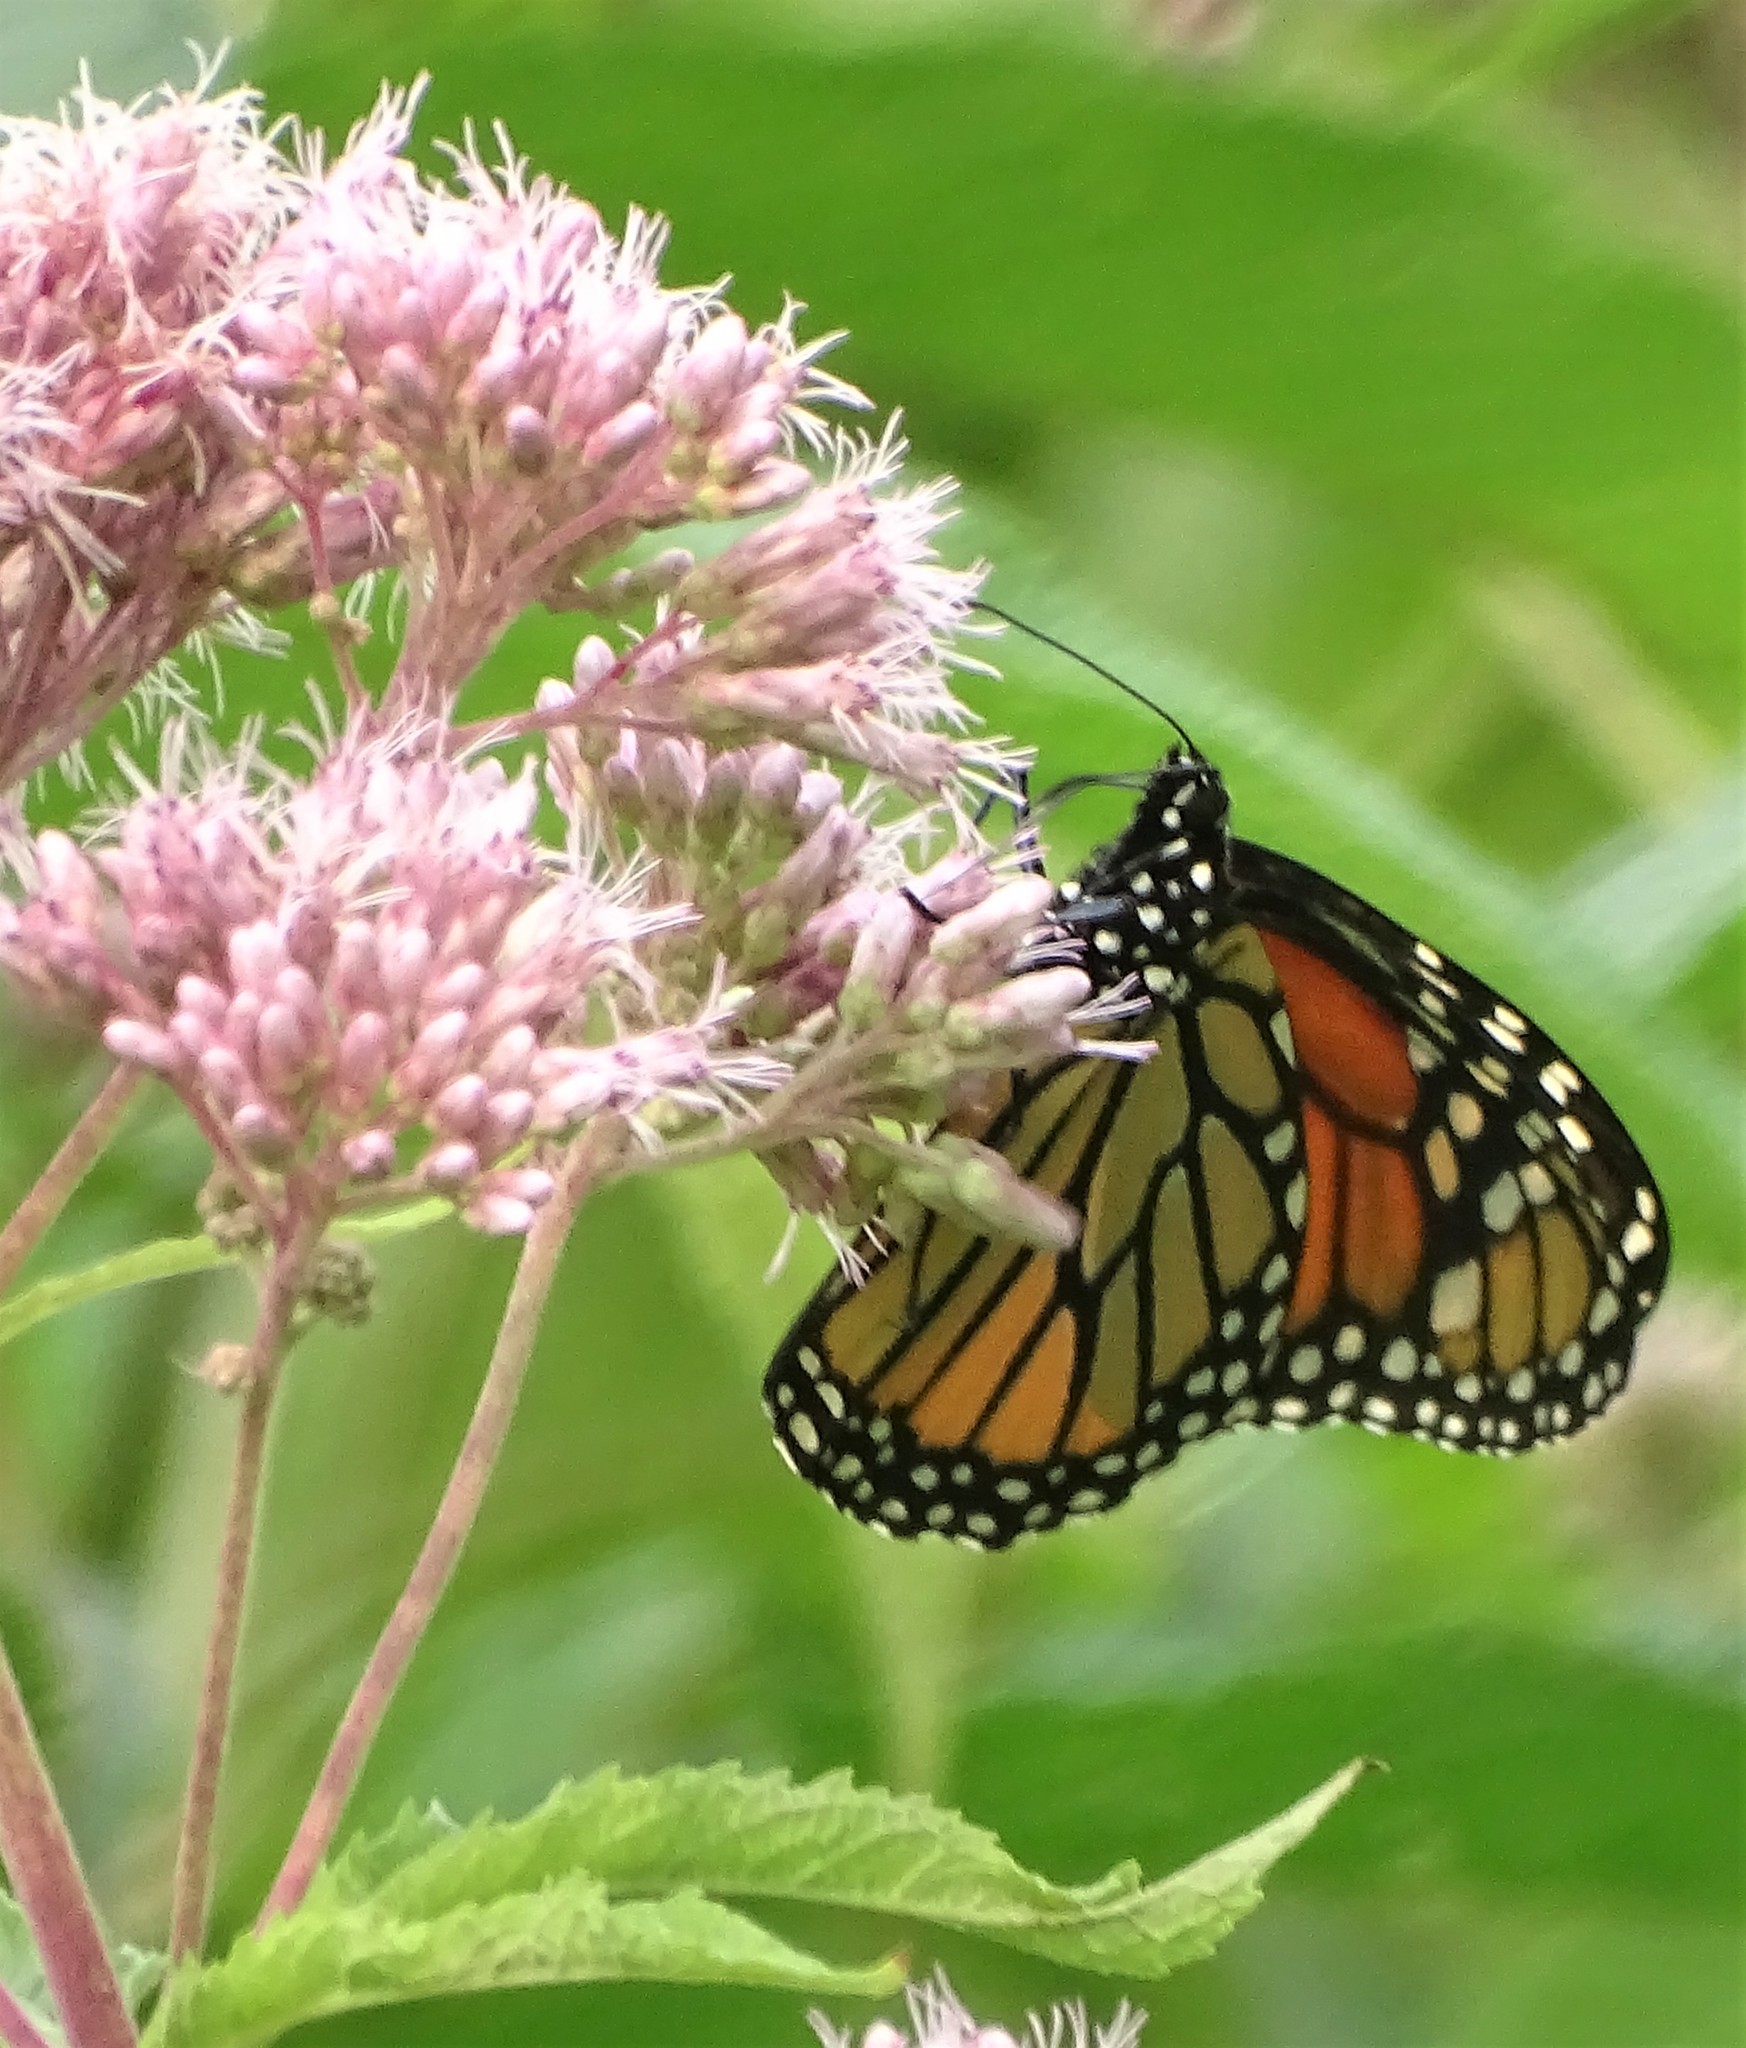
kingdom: Animalia
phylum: Arthropoda
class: Insecta
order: Lepidoptera
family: Nymphalidae
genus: Danaus
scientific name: Danaus plexippus
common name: Monarch
